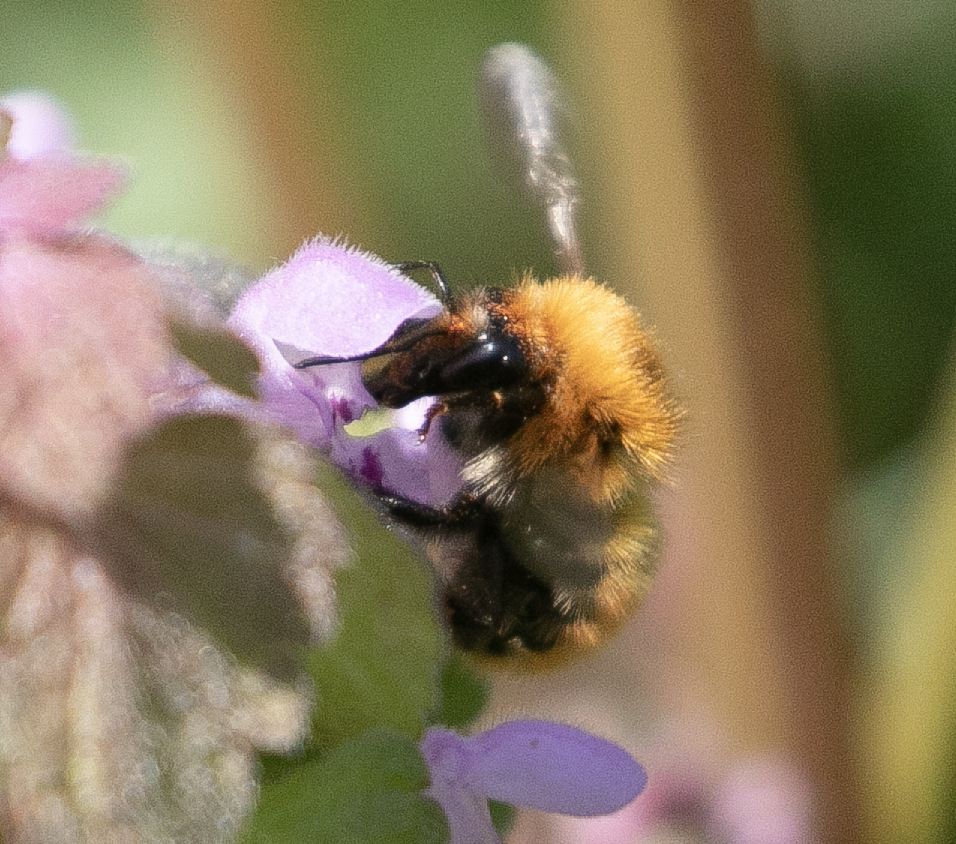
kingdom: Animalia
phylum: Arthropoda
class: Insecta
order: Hymenoptera
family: Apidae
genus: Bombus
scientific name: Bombus pascuorum
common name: Common carder bee
